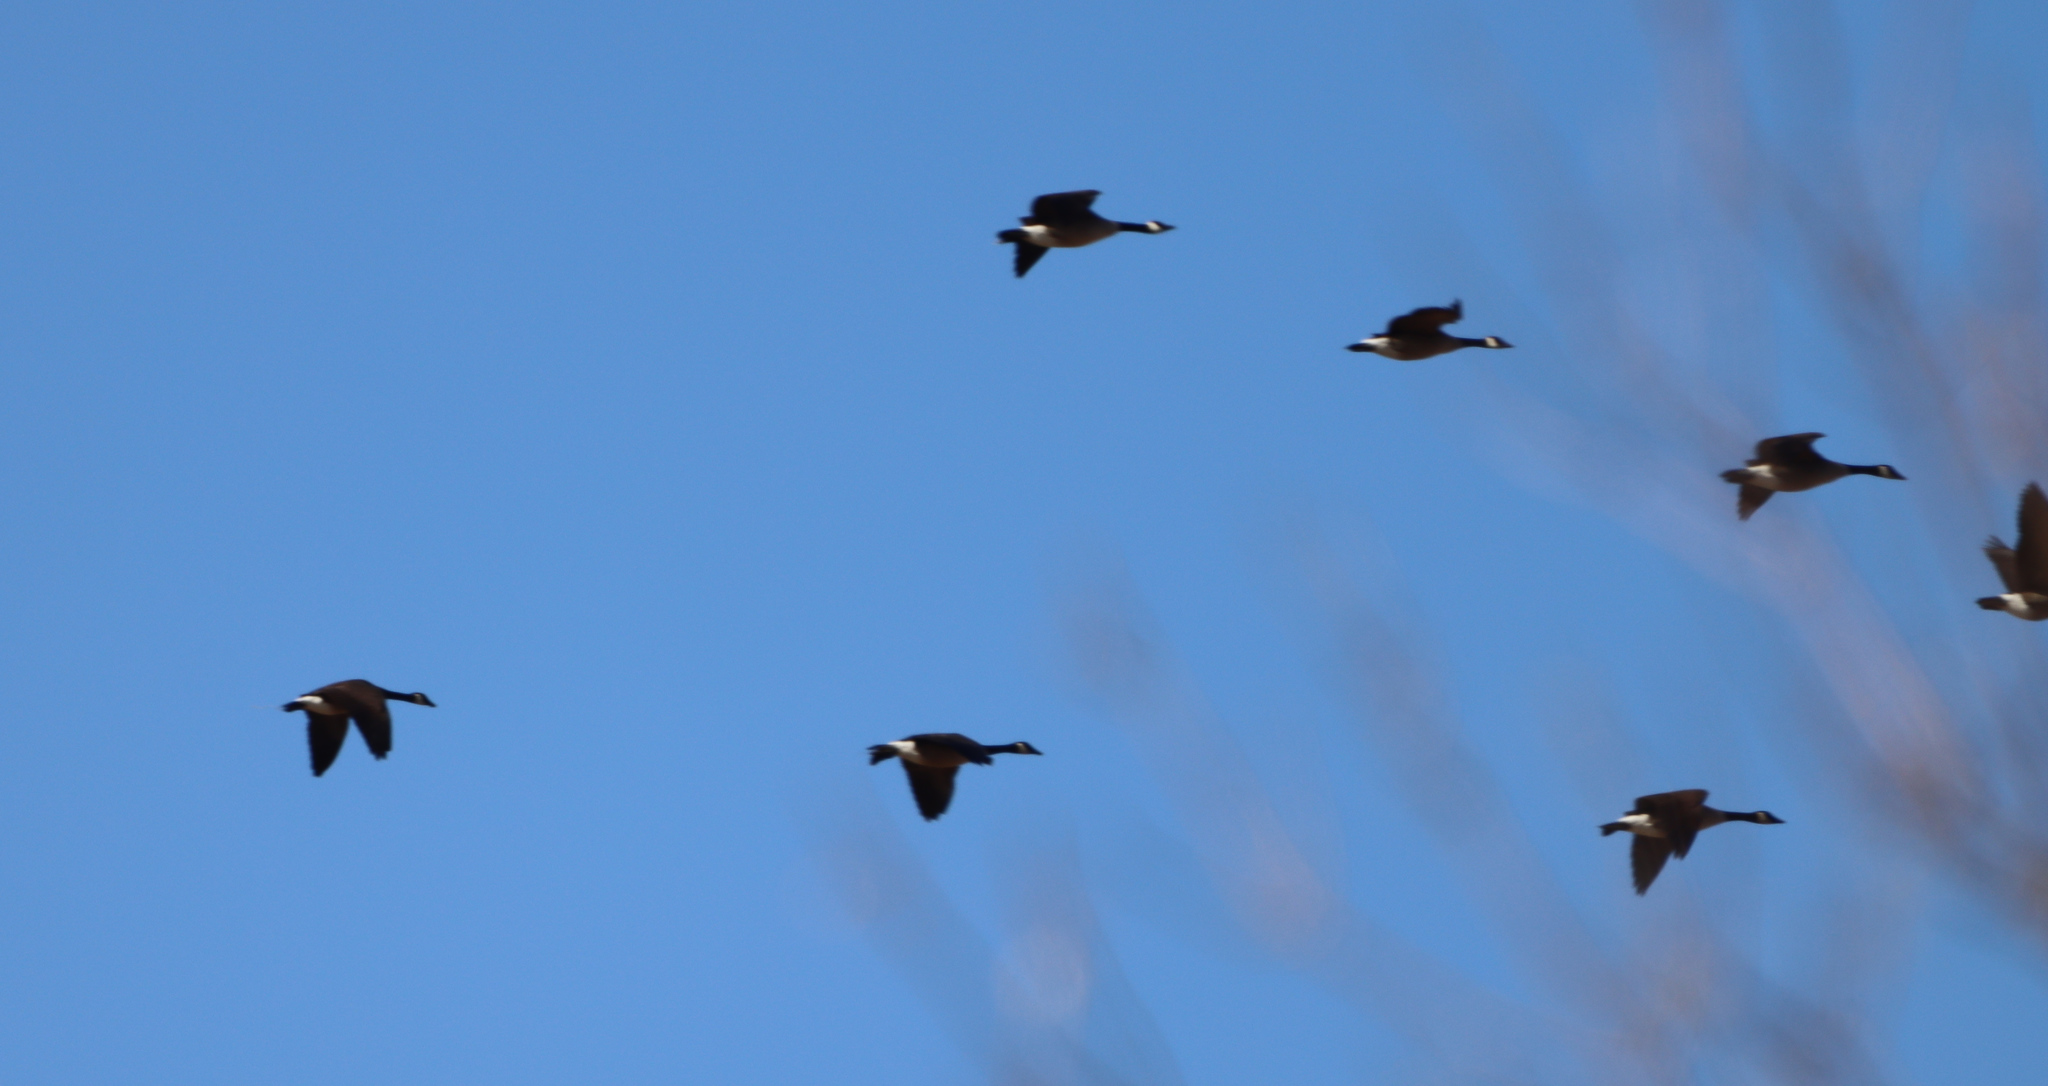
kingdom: Animalia
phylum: Chordata
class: Aves
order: Anseriformes
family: Anatidae
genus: Branta
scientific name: Branta canadensis
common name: Canada goose
